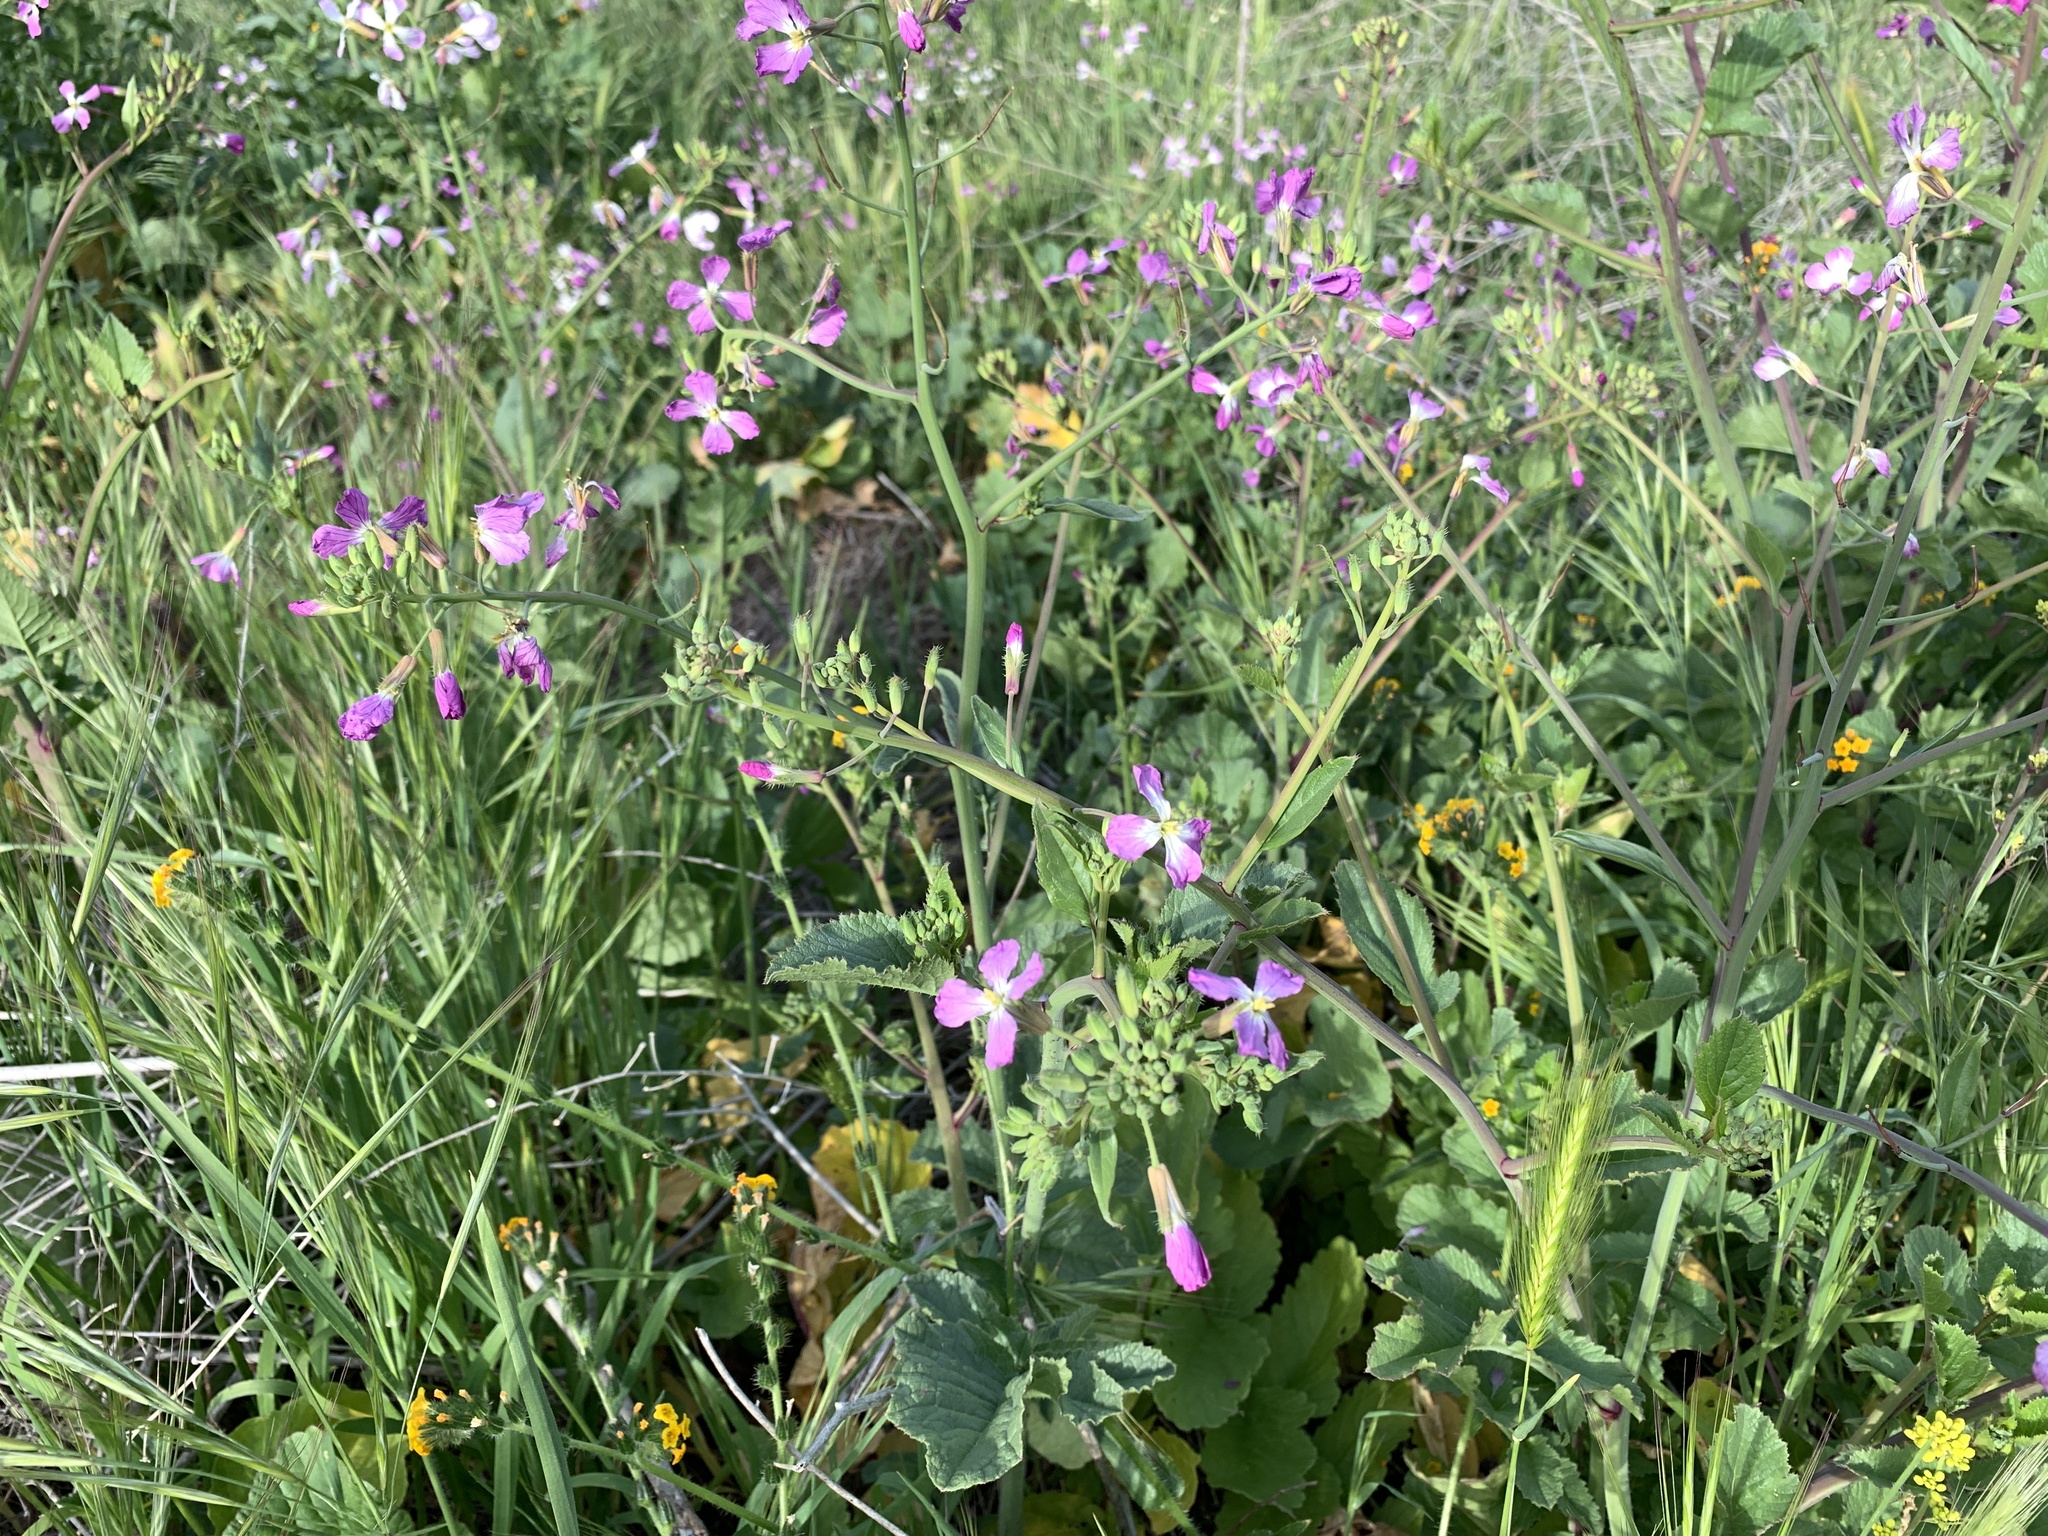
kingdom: Plantae
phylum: Tracheophyta
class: Magnoliopsida
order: Brassicales
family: Brassicaceae
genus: Raphanus
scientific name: Raphanus sativus
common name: Cultivated radish
